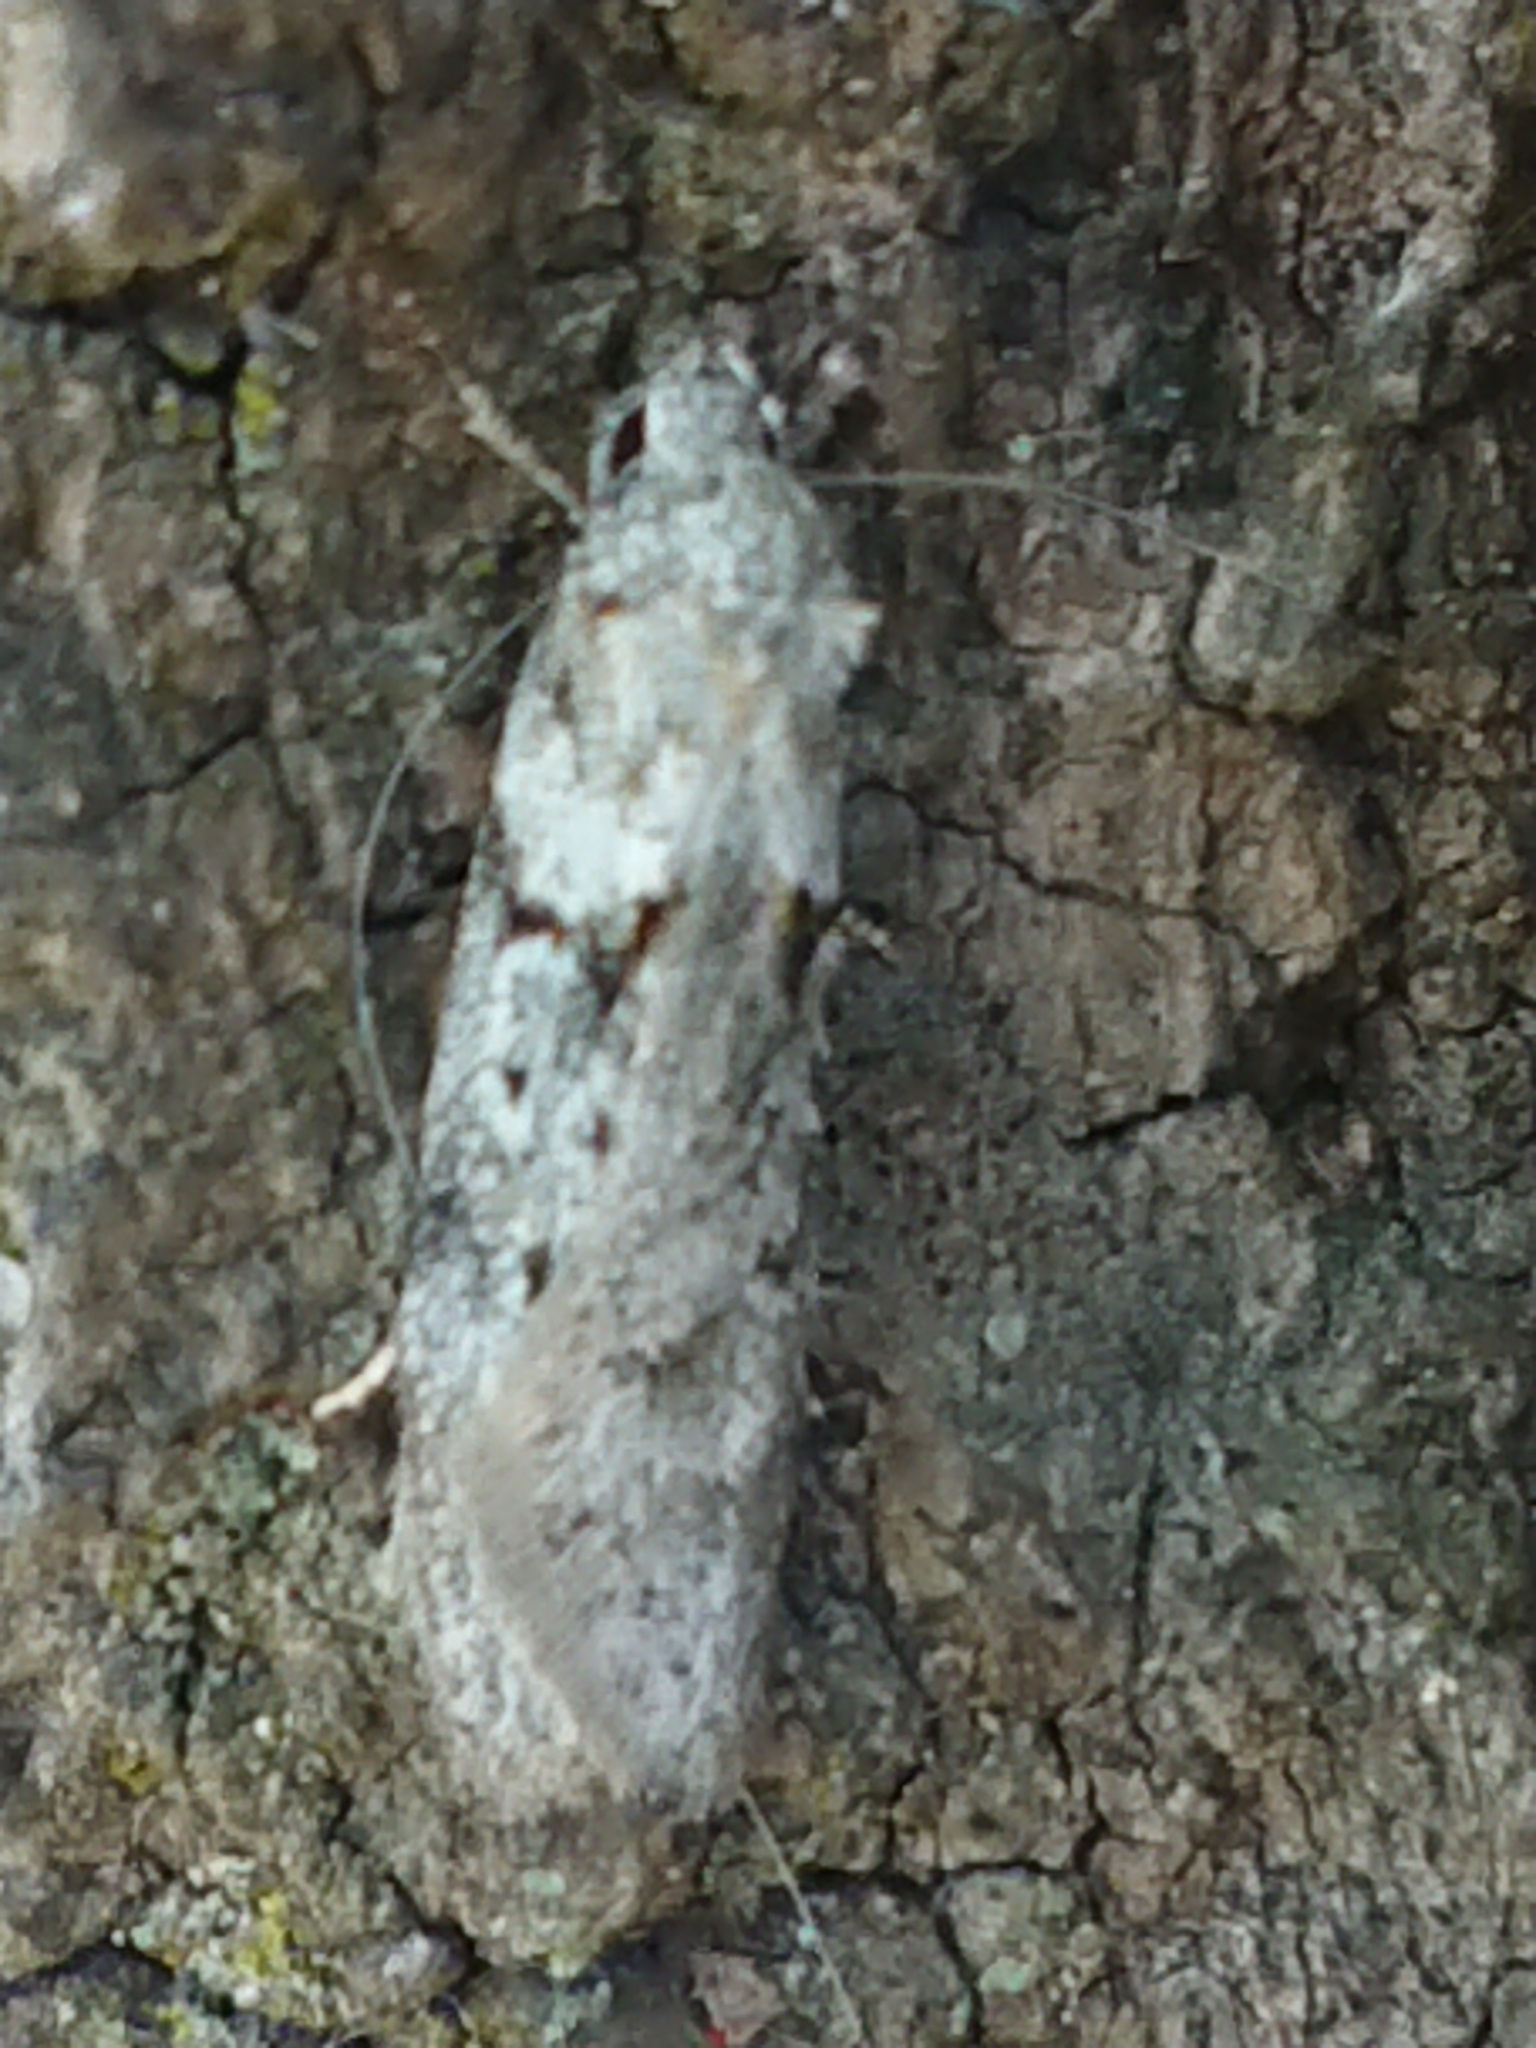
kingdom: Animalia
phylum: Arthropoda
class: Insecta
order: Lepidoptera
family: Oecophoridae
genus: Izatha
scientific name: Izatha convulsella
